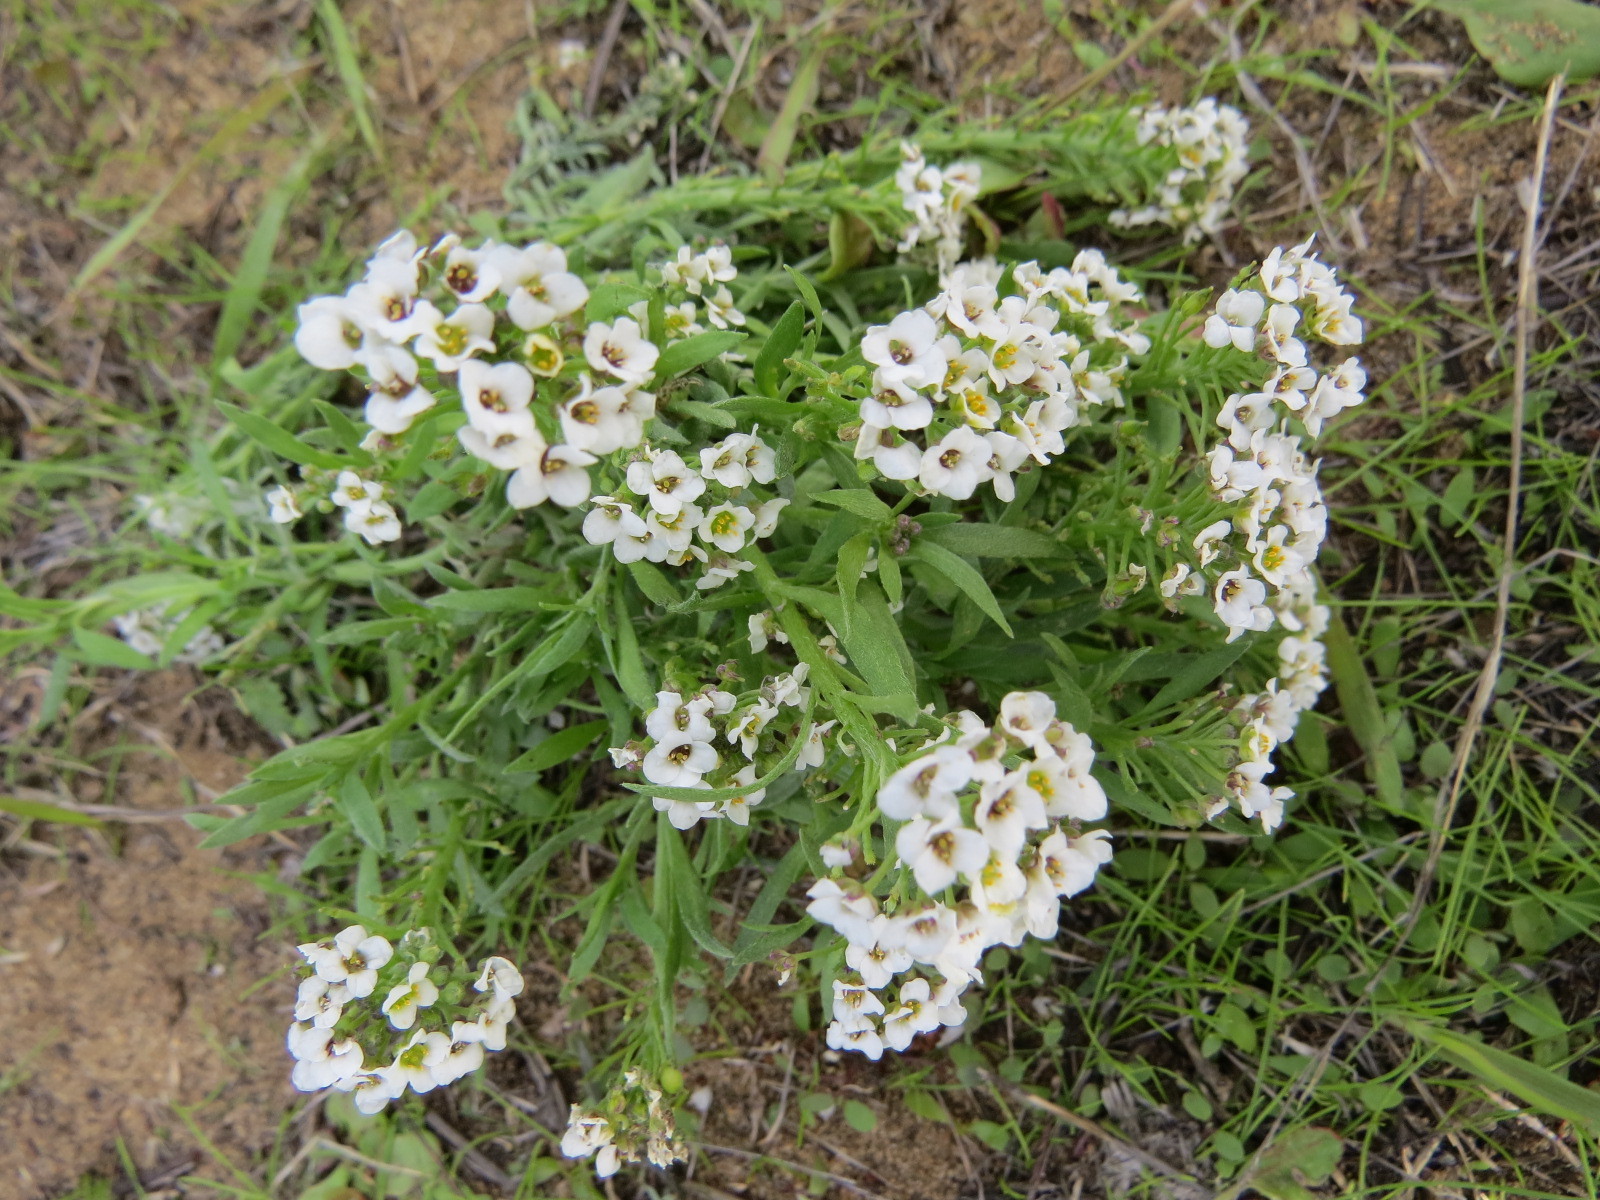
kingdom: Plantae
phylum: Tracheophyta
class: Magnoliopsida
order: Brassicales
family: Brassicaceae
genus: Lobularia
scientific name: Lobularia maritima
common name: Sweet alison
